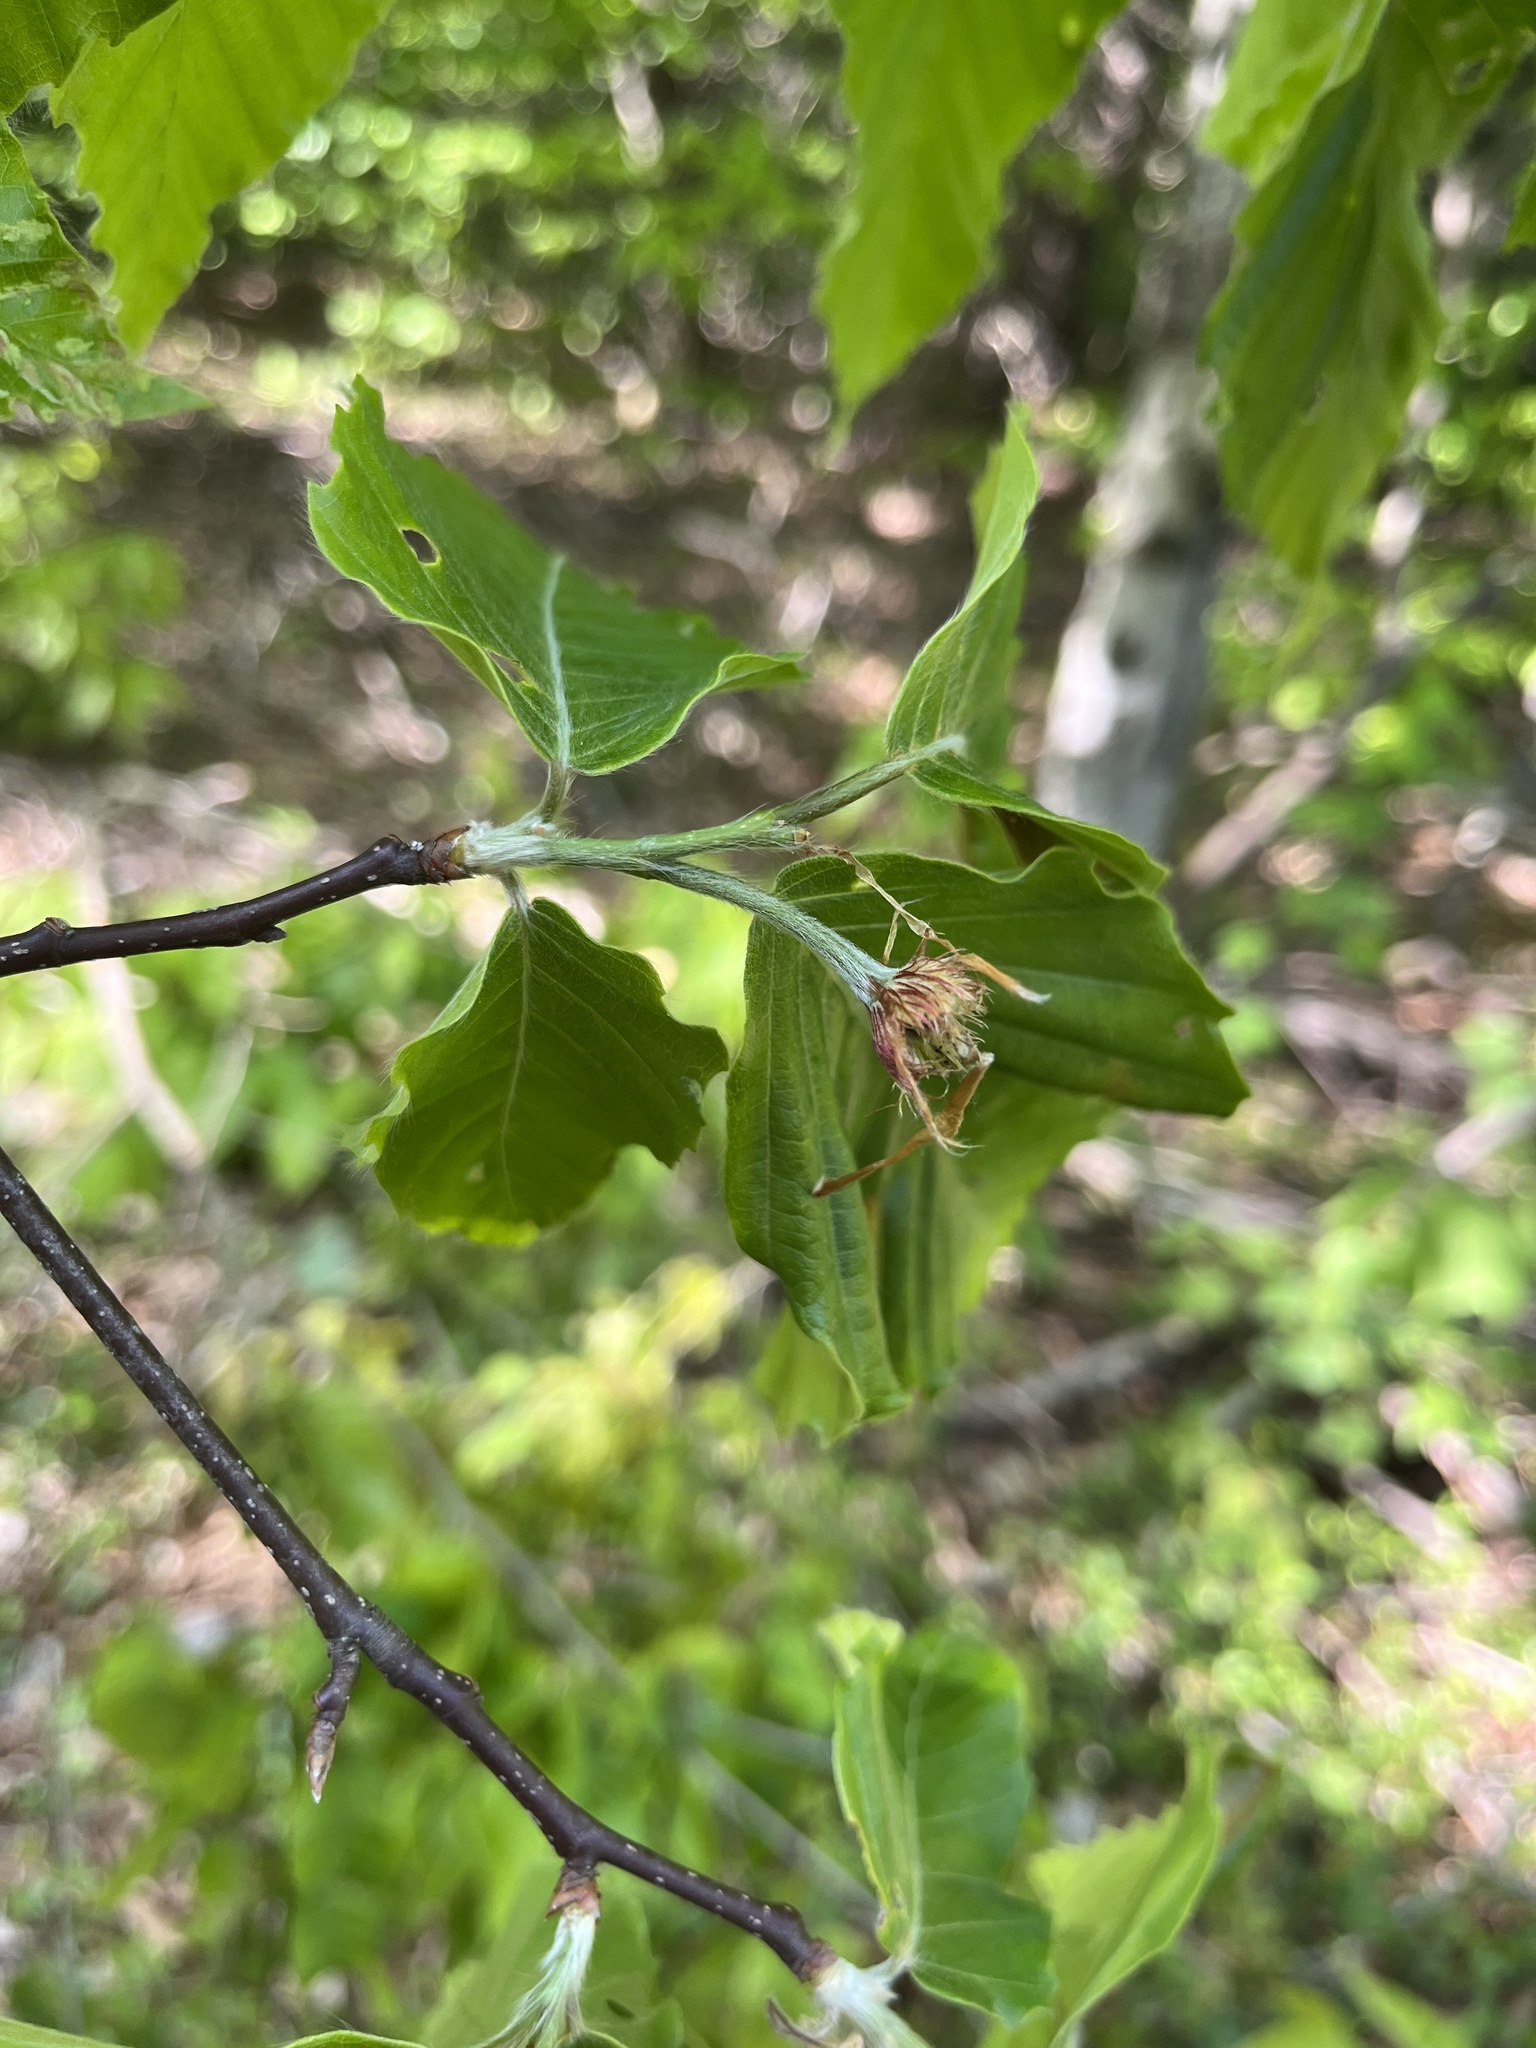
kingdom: Plantae
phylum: Tracheophyta
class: Magnoliopsida
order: Fagales
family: Fagaceae
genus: Fagus
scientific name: Fagus grandifolia
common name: American beech
